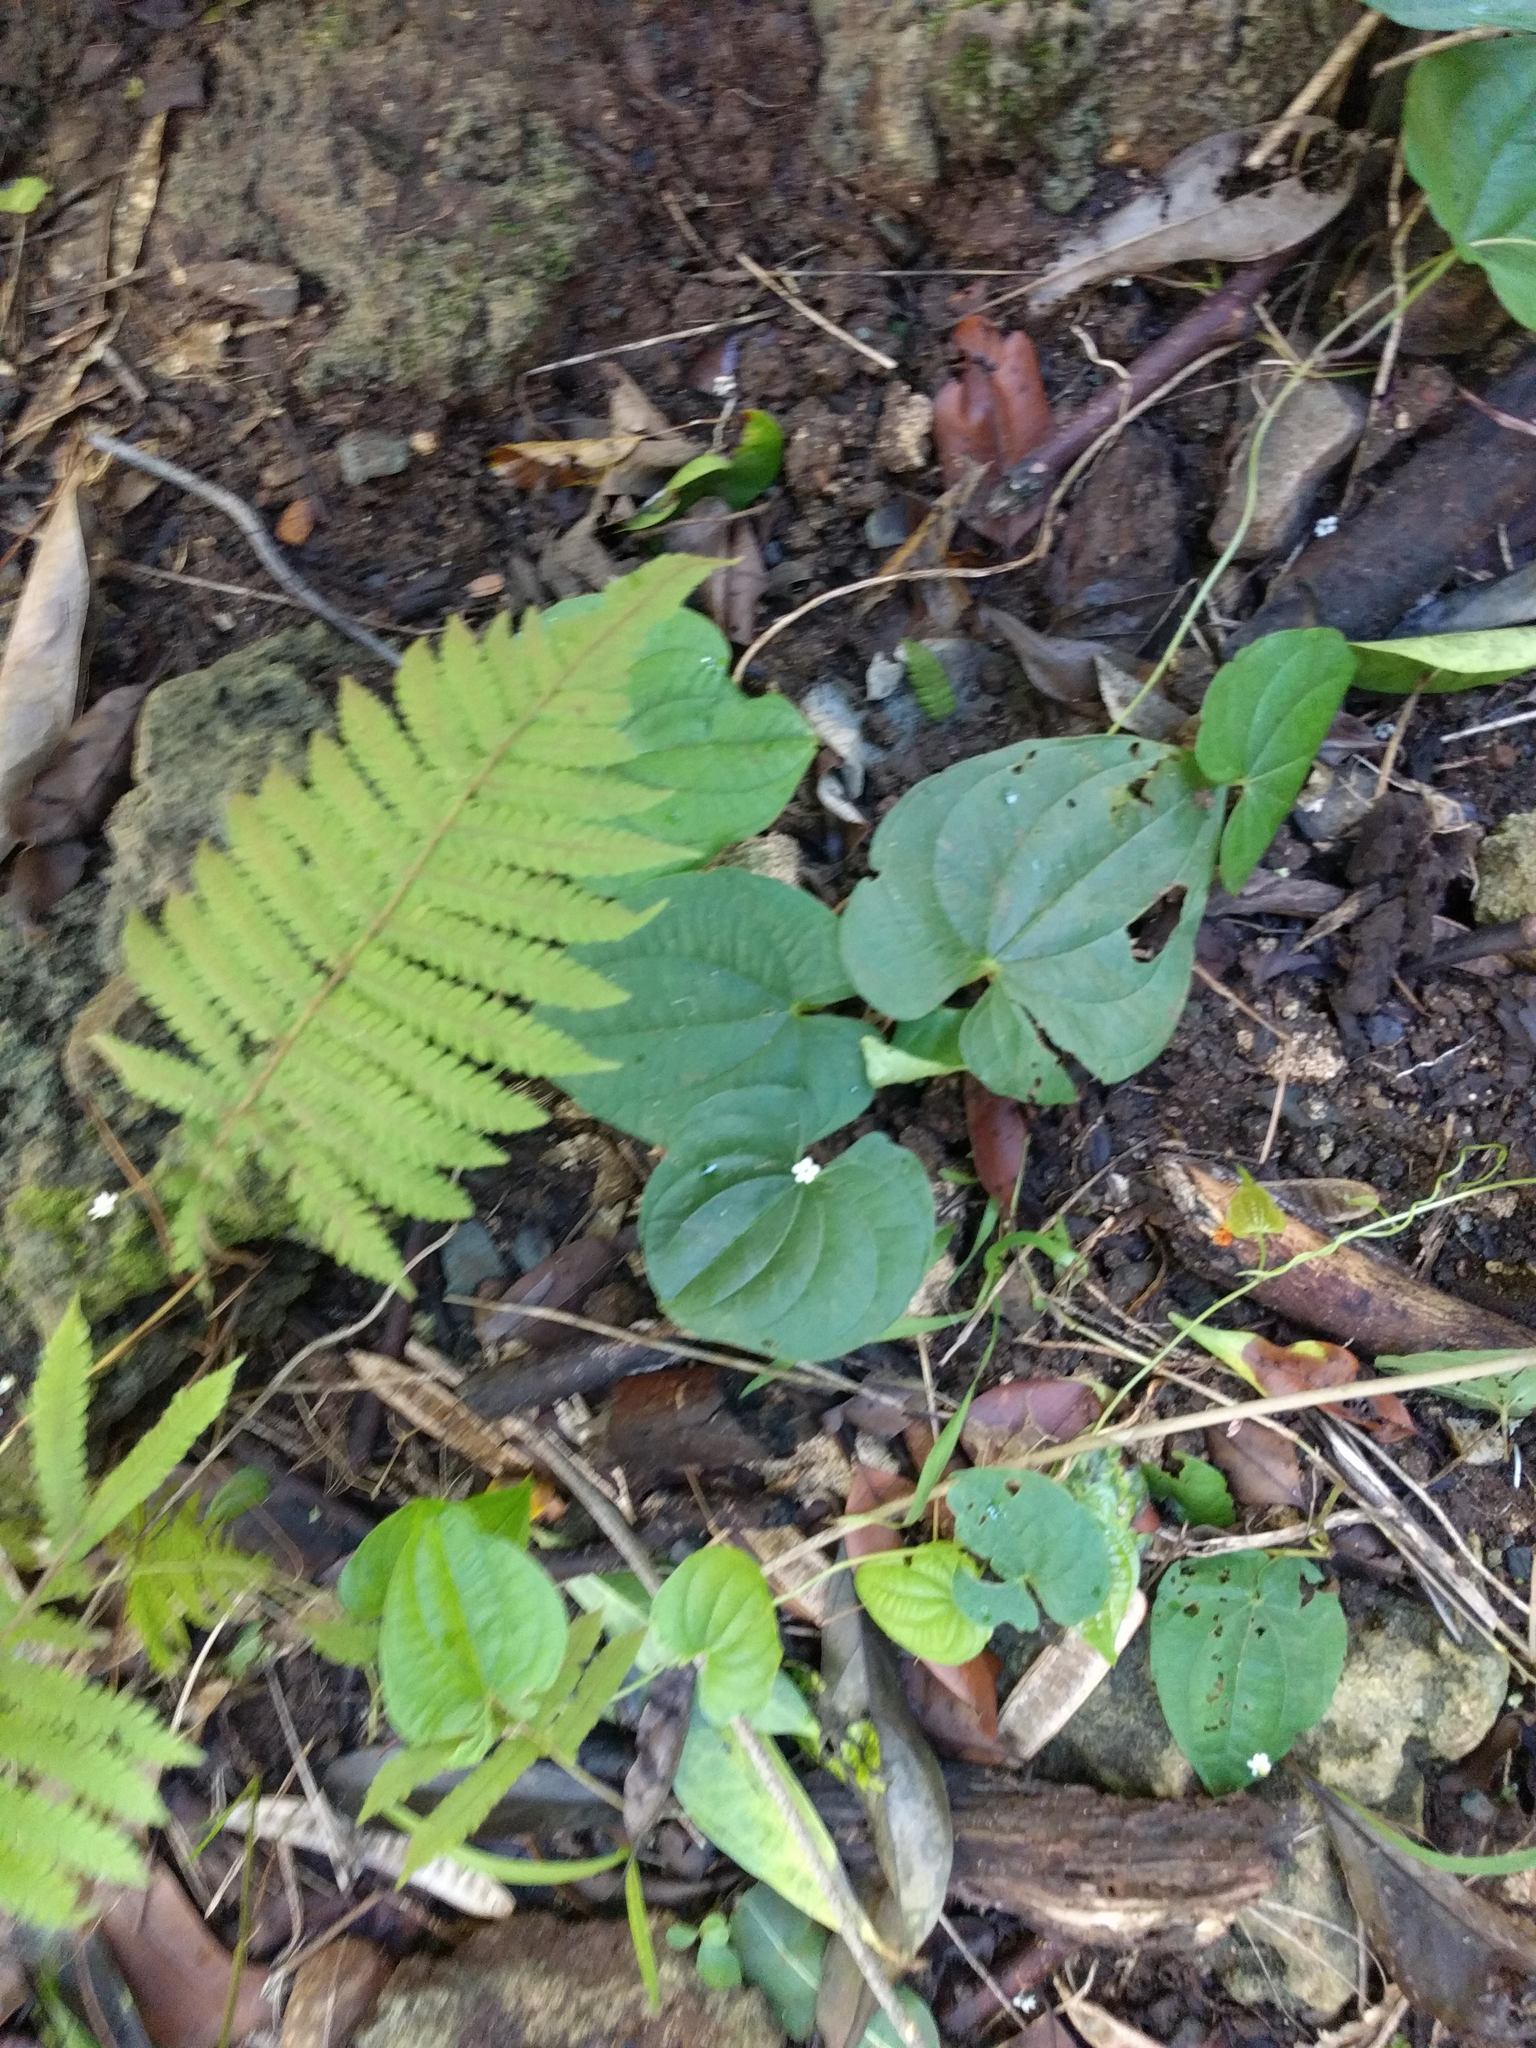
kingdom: Plantae
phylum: Tracheophyta
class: Liliopsida
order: Dioscoreales
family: Dioscoreaceae
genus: Dioscorea
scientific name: Dioscorea bulbifera
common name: Air yam
